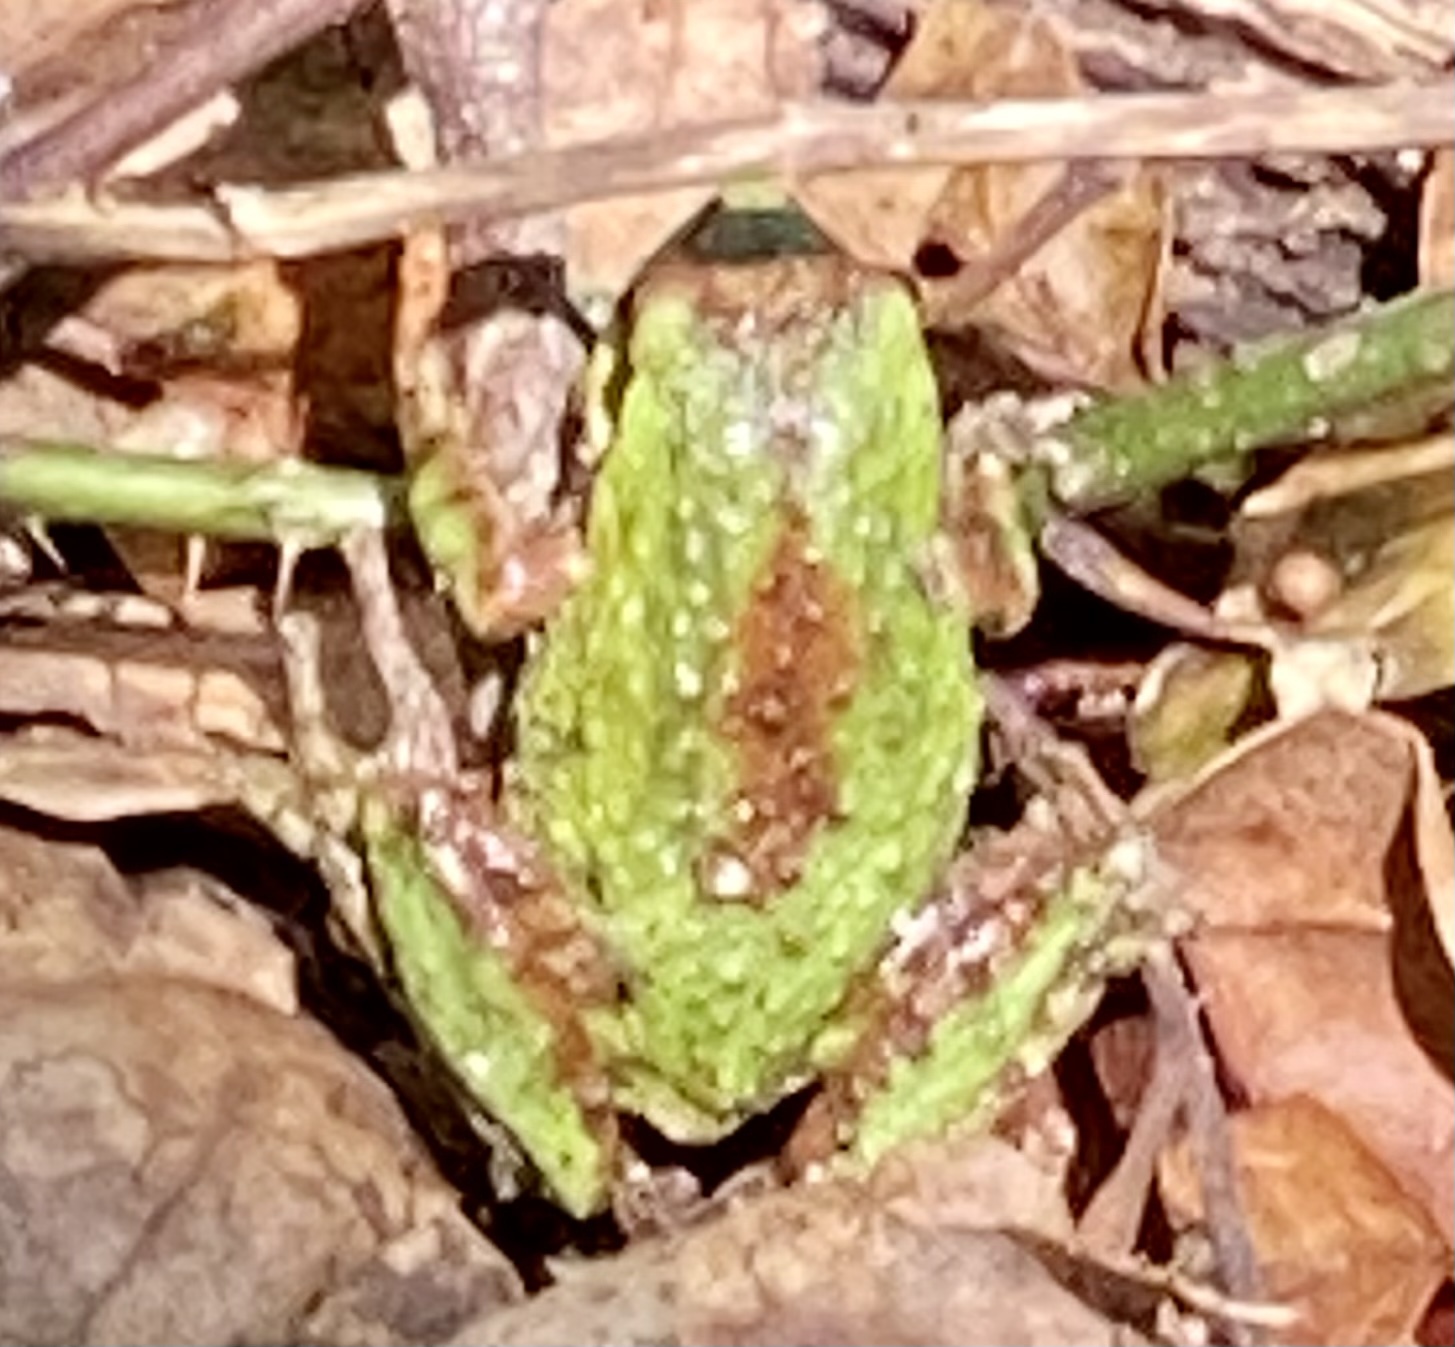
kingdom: Animalia
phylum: Chordata
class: Amphibia
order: Anura
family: Hylidae
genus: Pseudacris
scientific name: Pseudacris regilla
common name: Pacific chorus frog
